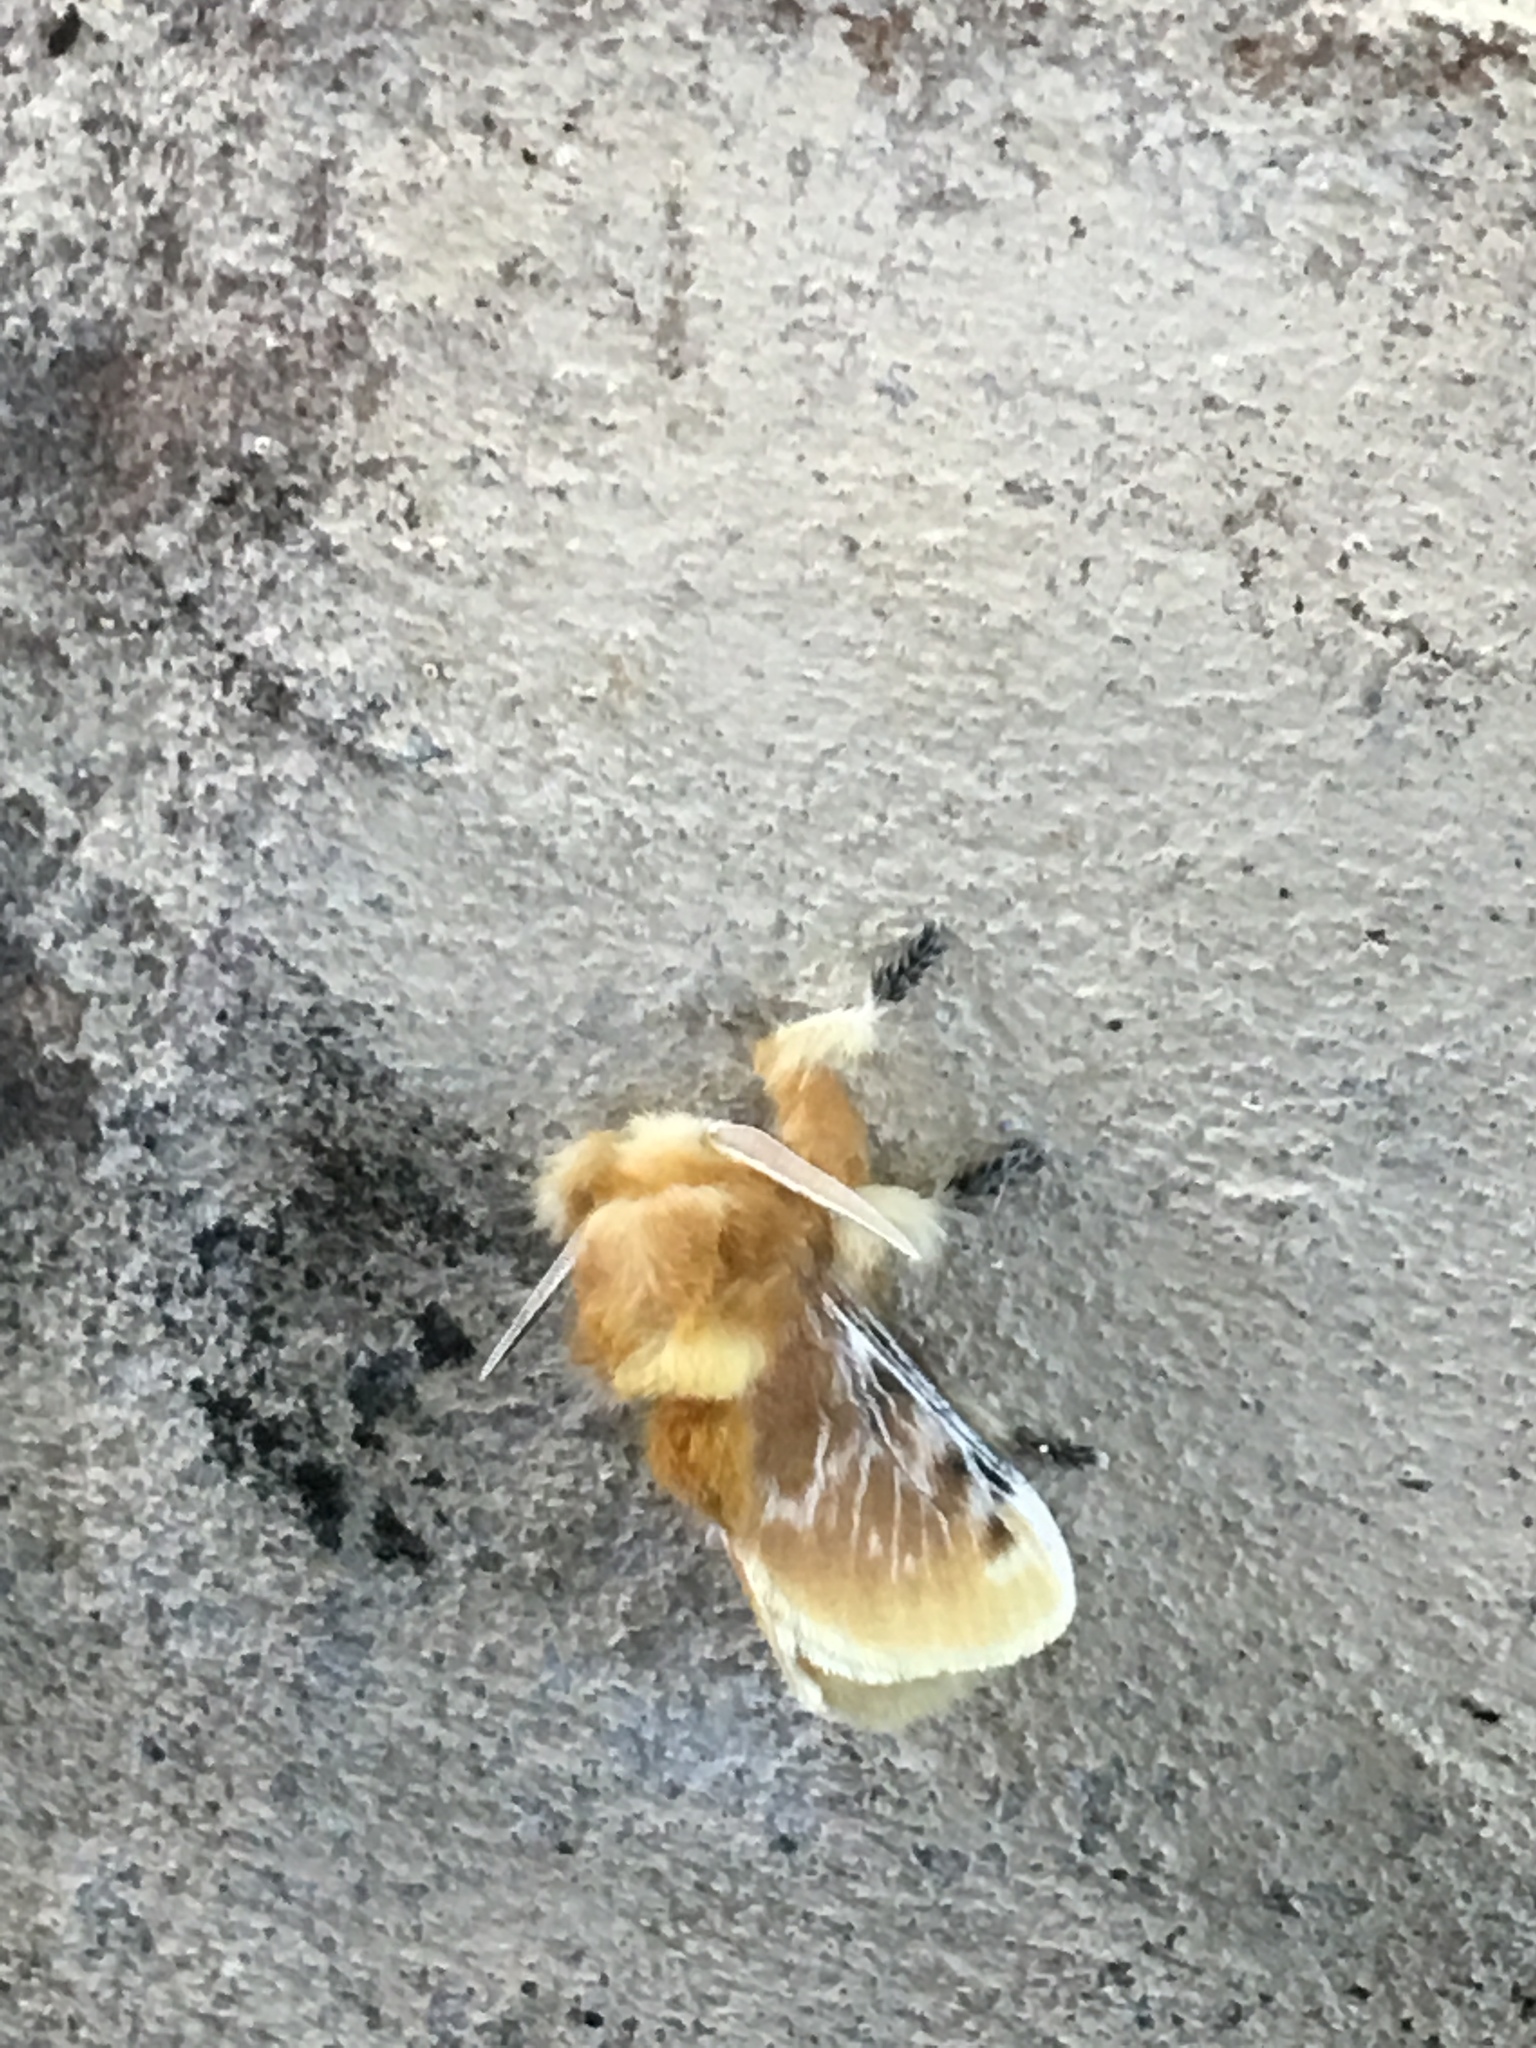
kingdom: Animalia
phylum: Arthropoda
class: Insecta
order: Lepidoptera
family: Megalopygidae
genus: Megalopyge
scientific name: Megalopyge opercularis
